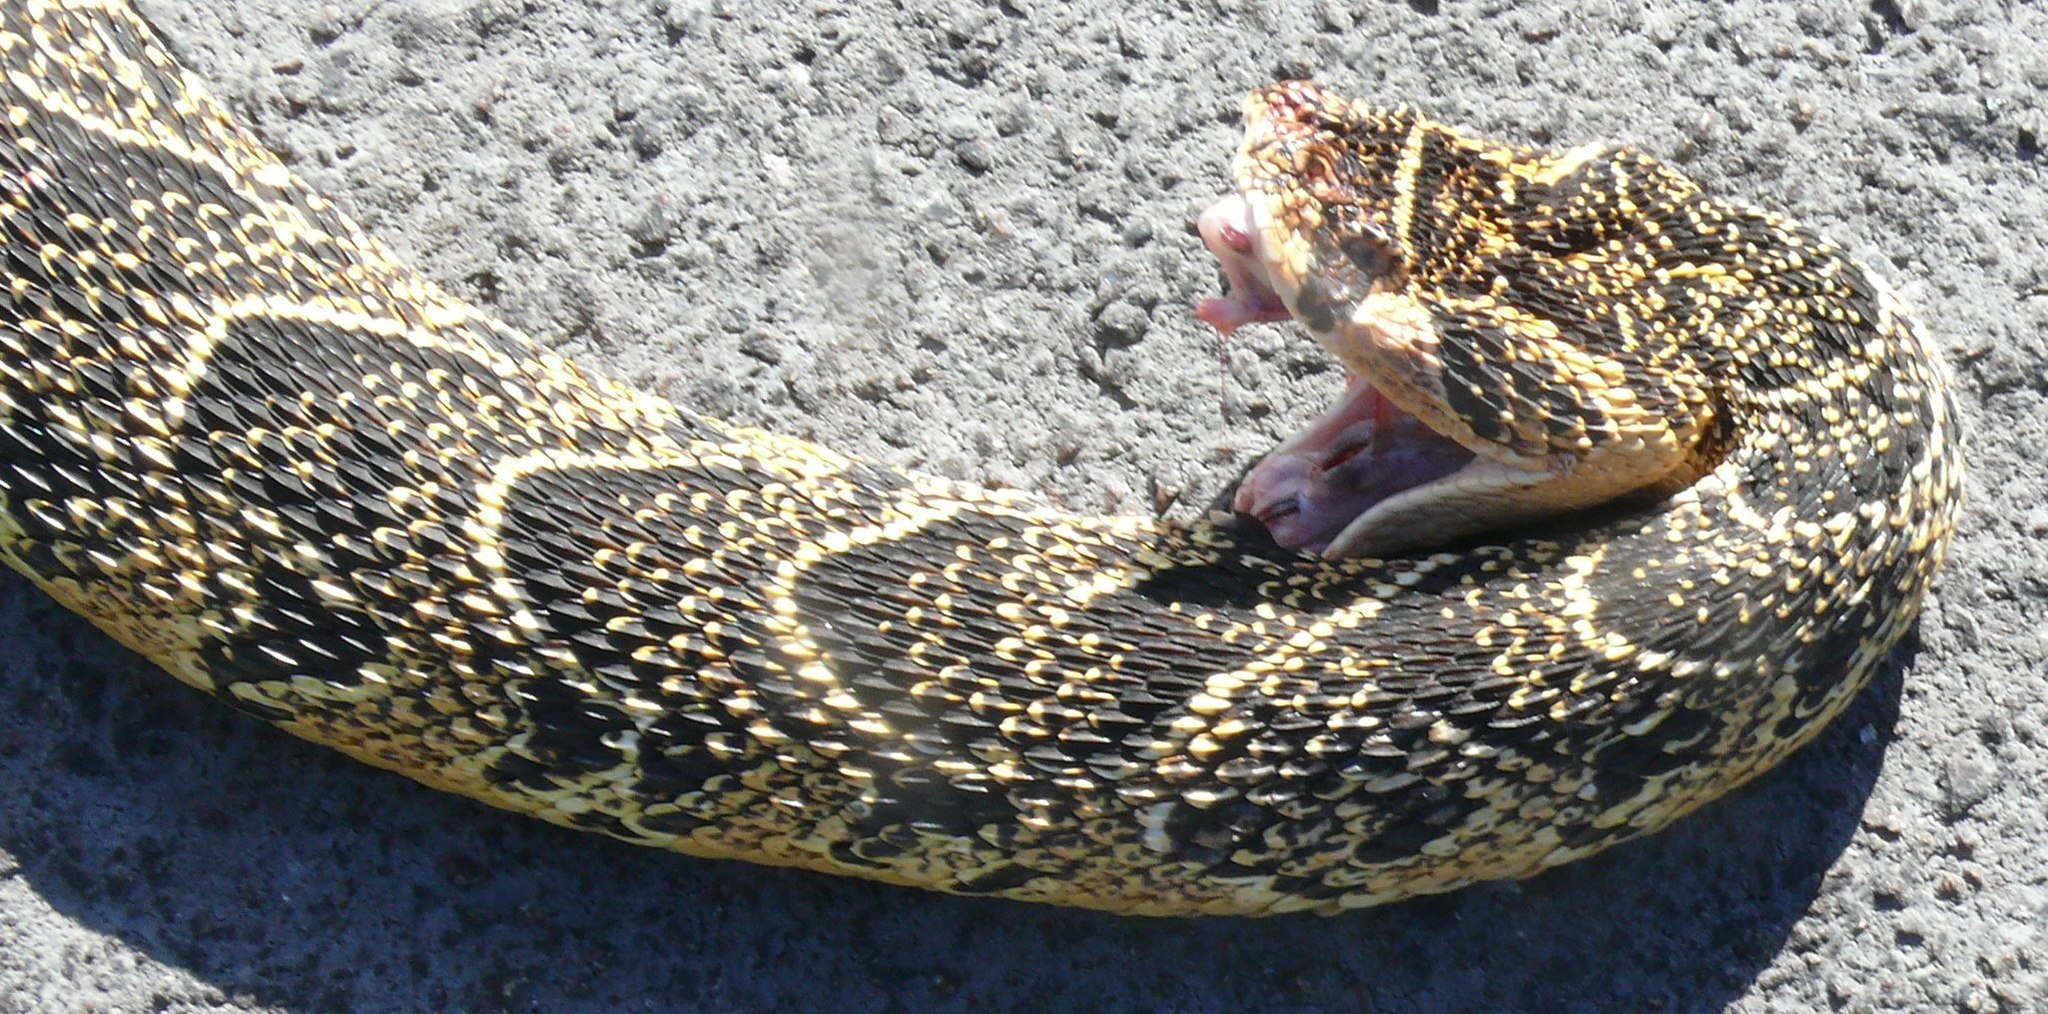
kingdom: Animalia
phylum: Chordata
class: Squamata
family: Viperidae
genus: Bitis
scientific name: Bitis arietans
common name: Puff adder
